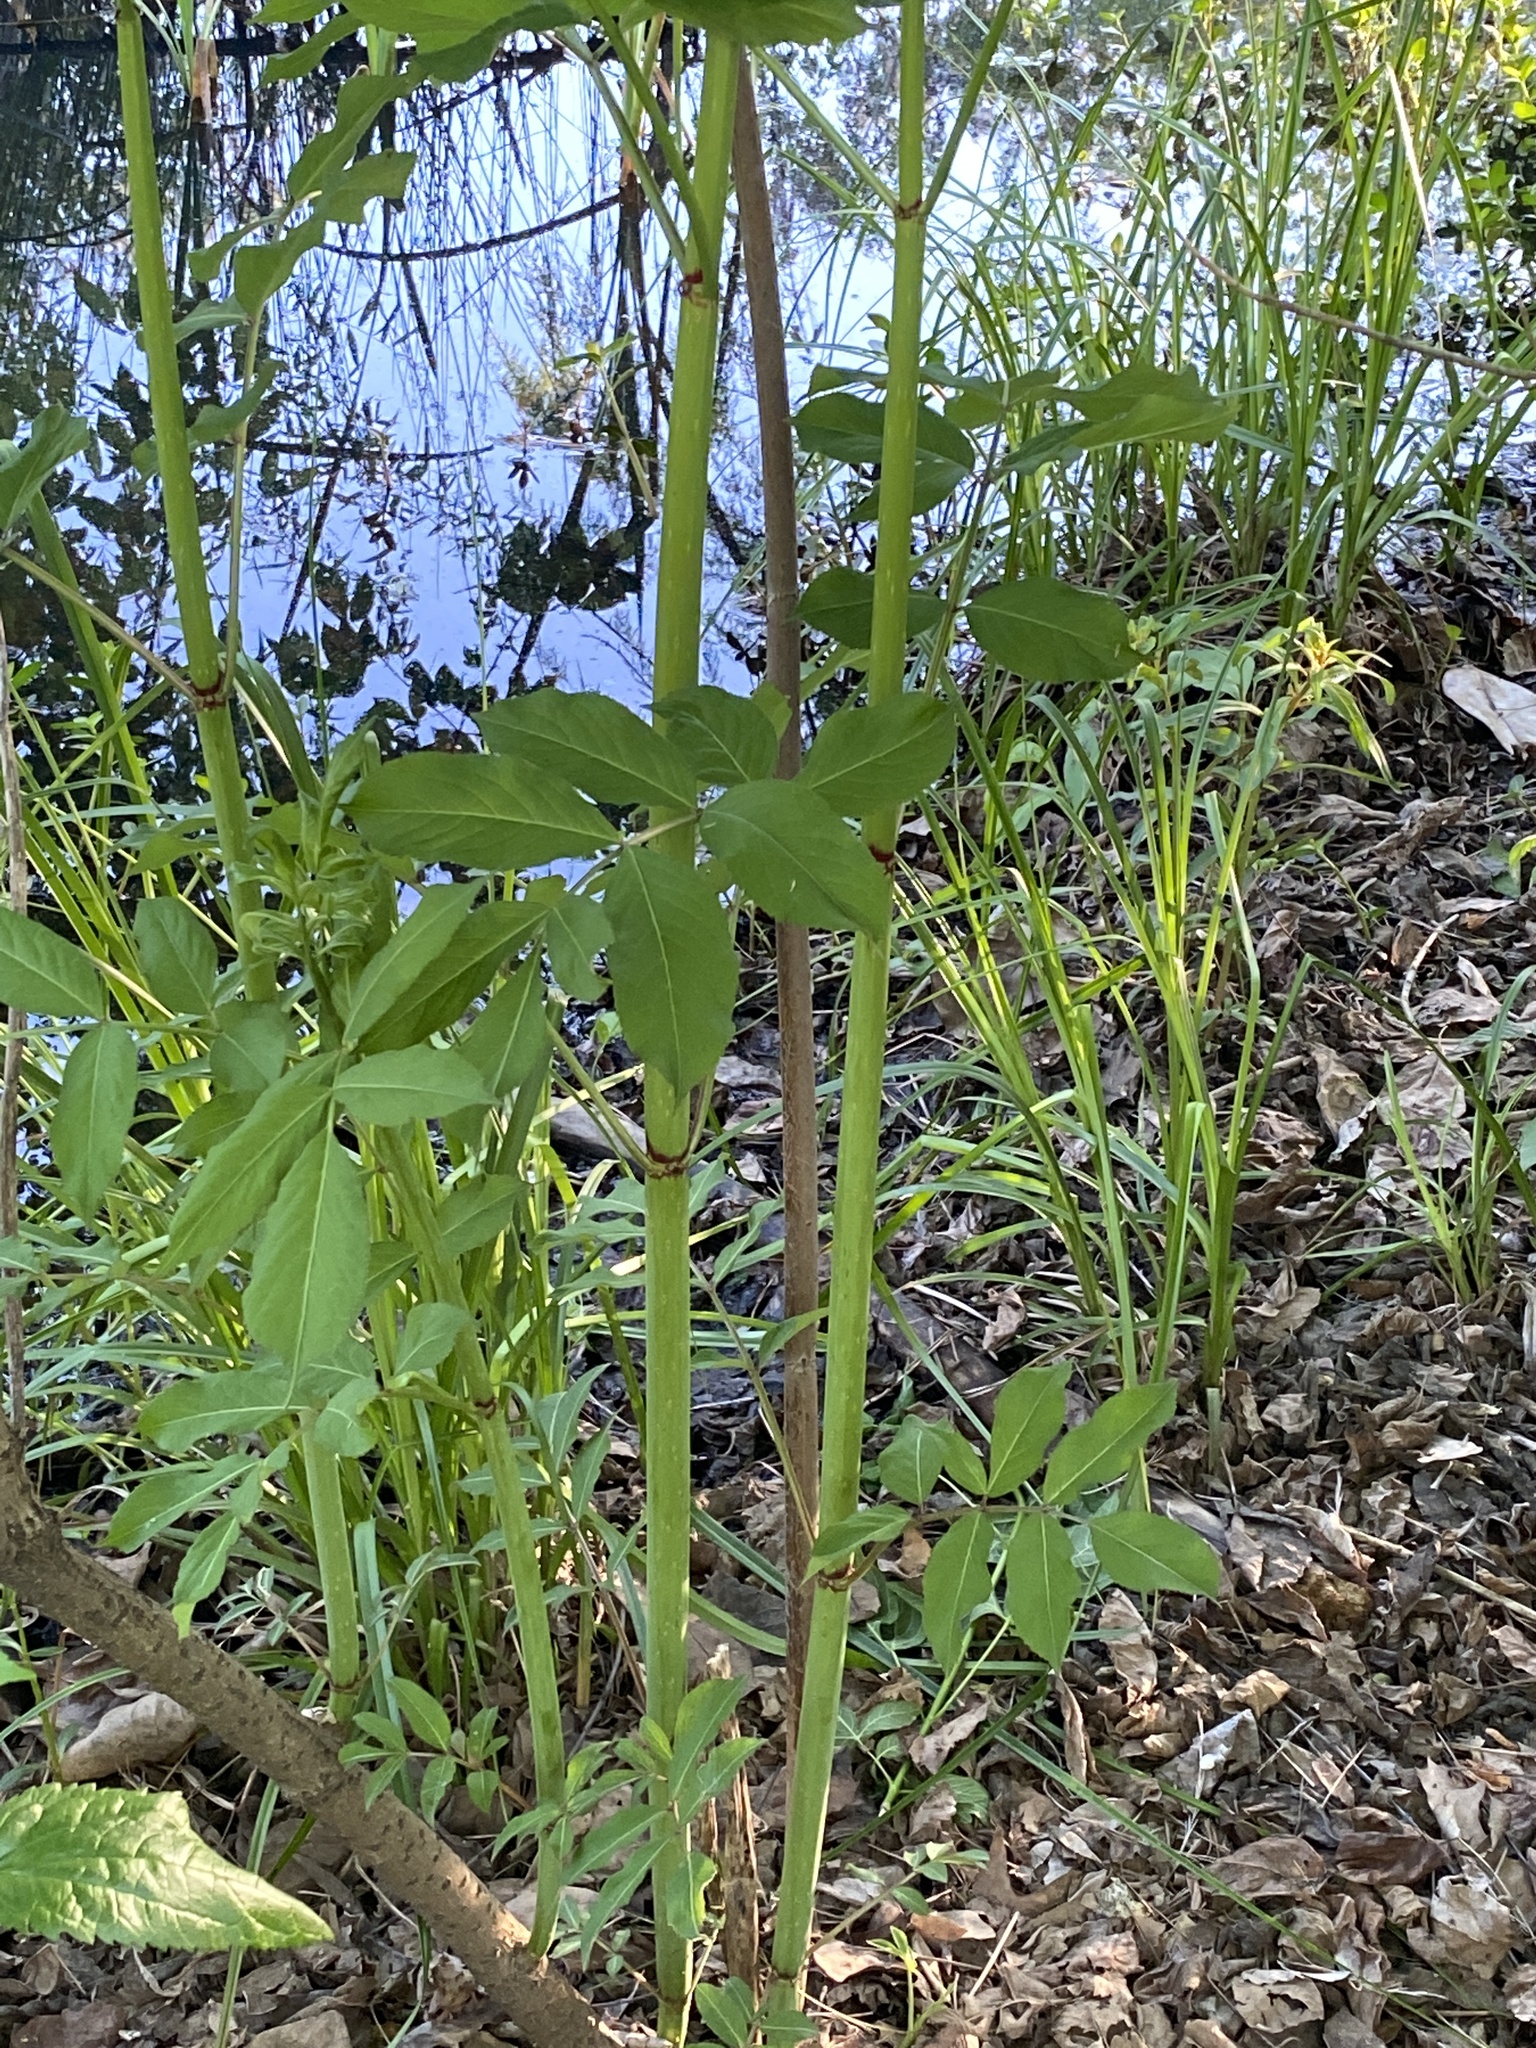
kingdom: Plantae
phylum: Tracheophyta
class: Magnoliopsida
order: Dipsacales
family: Viburnaceae
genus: Sambucus
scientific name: Sambucus canadensis
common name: American elder
